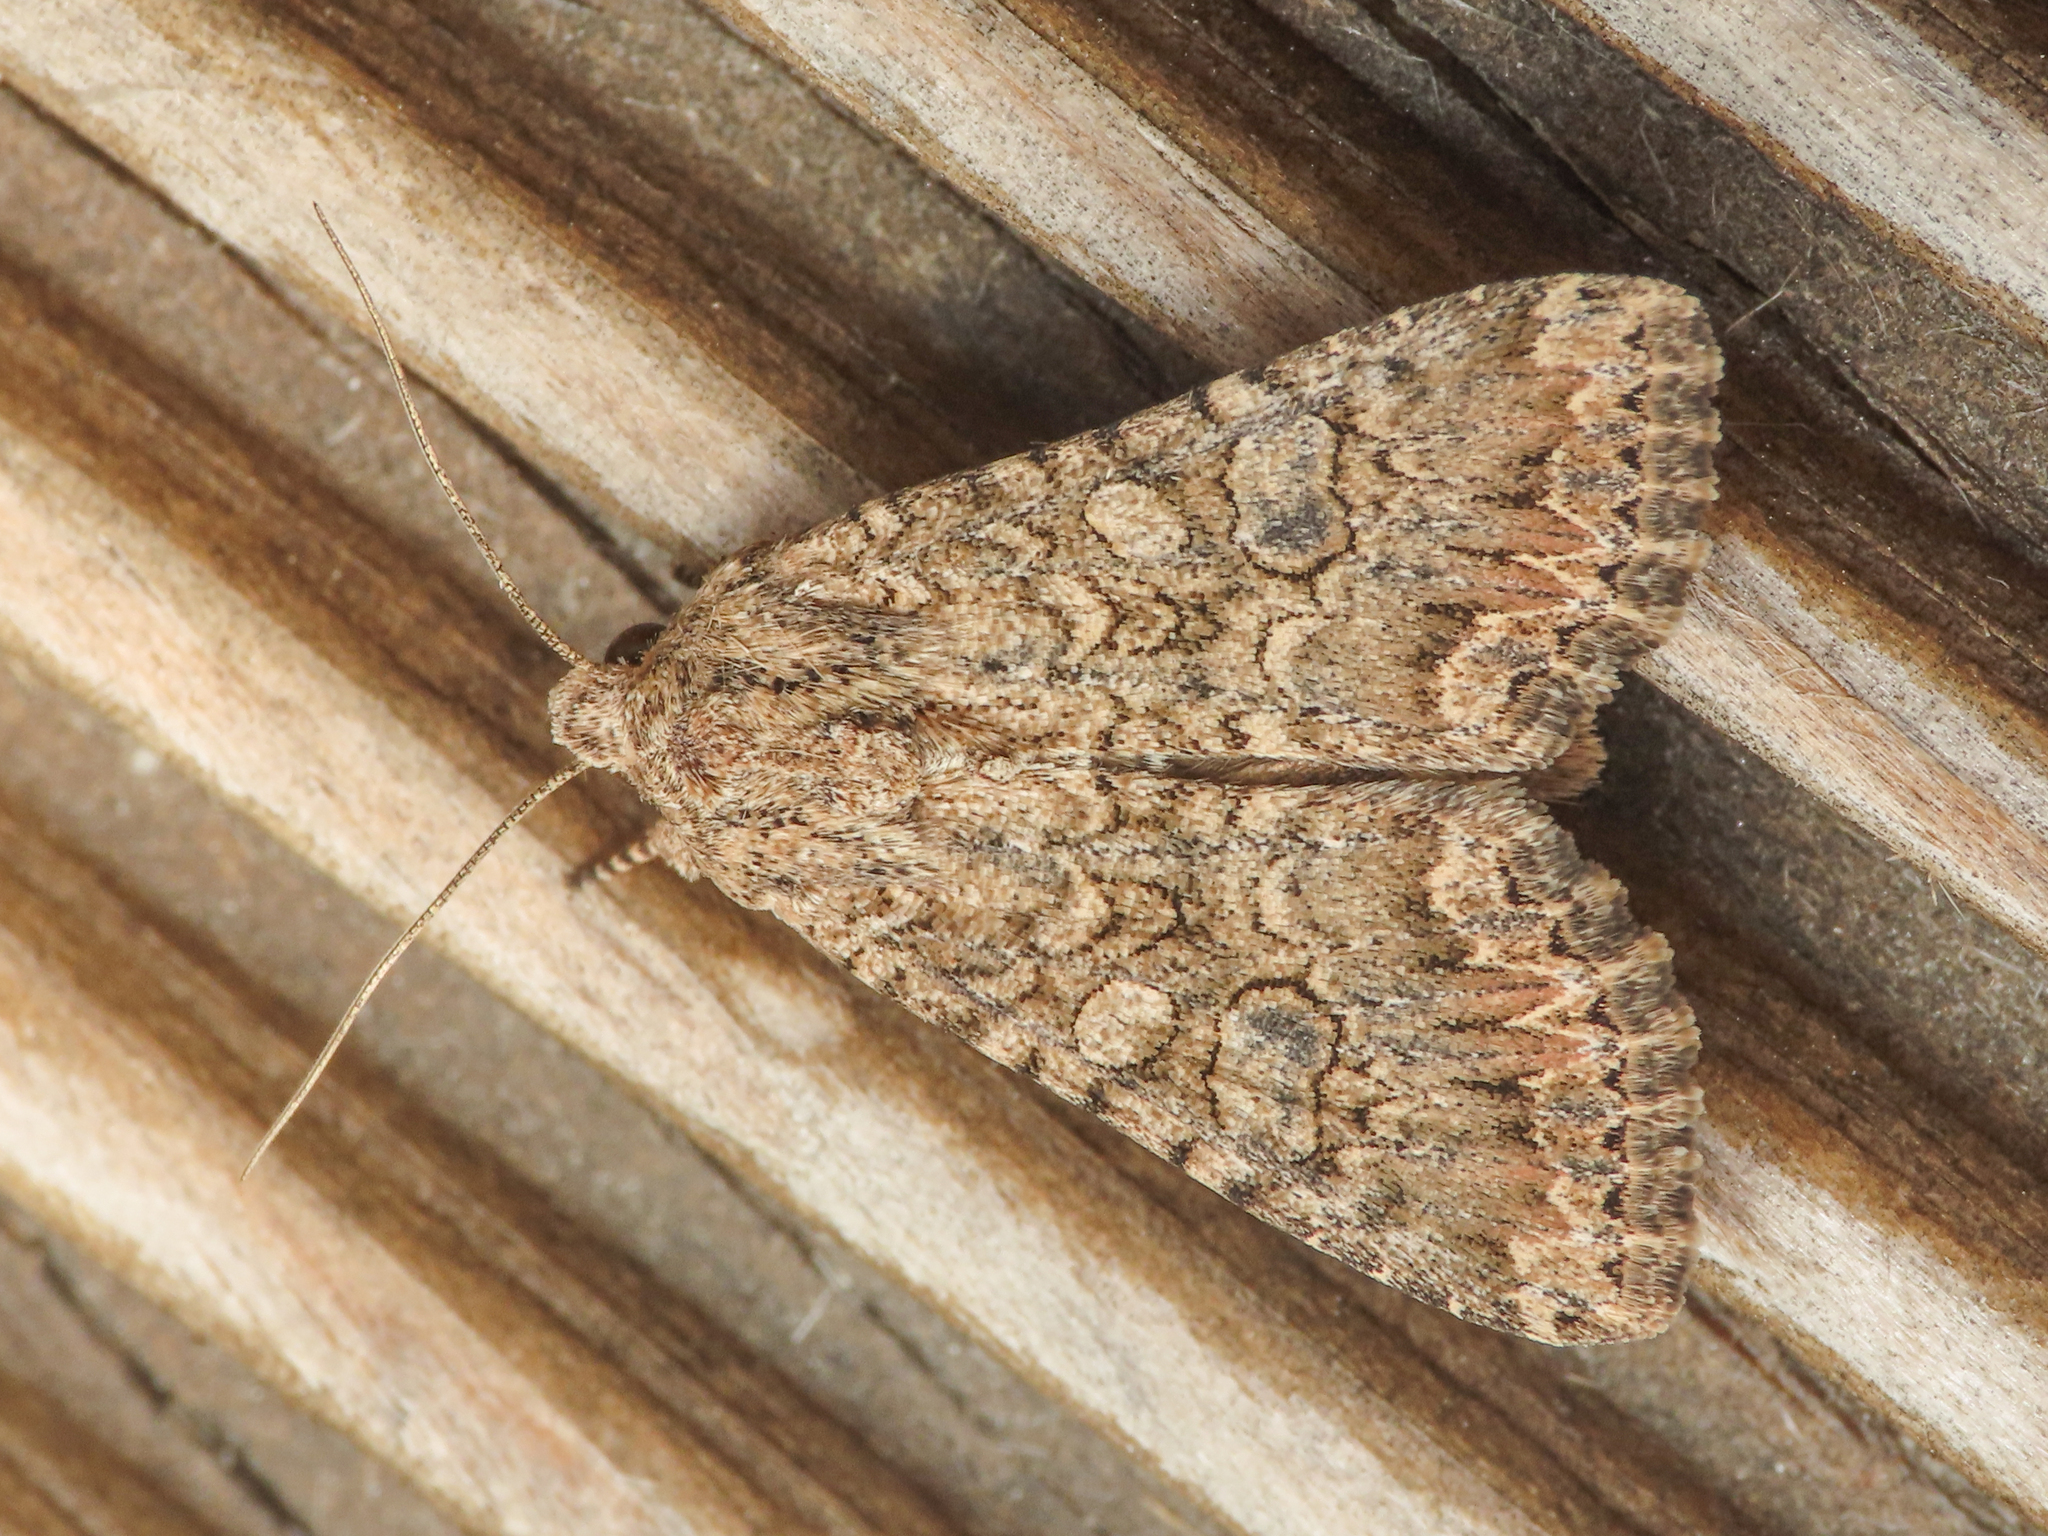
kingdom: Animalia
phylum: Arthropoda
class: Insecta
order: Lepidoptera
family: Noctuidae
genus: Anarta
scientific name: Anarta trifolii
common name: Clover cutworm moth
